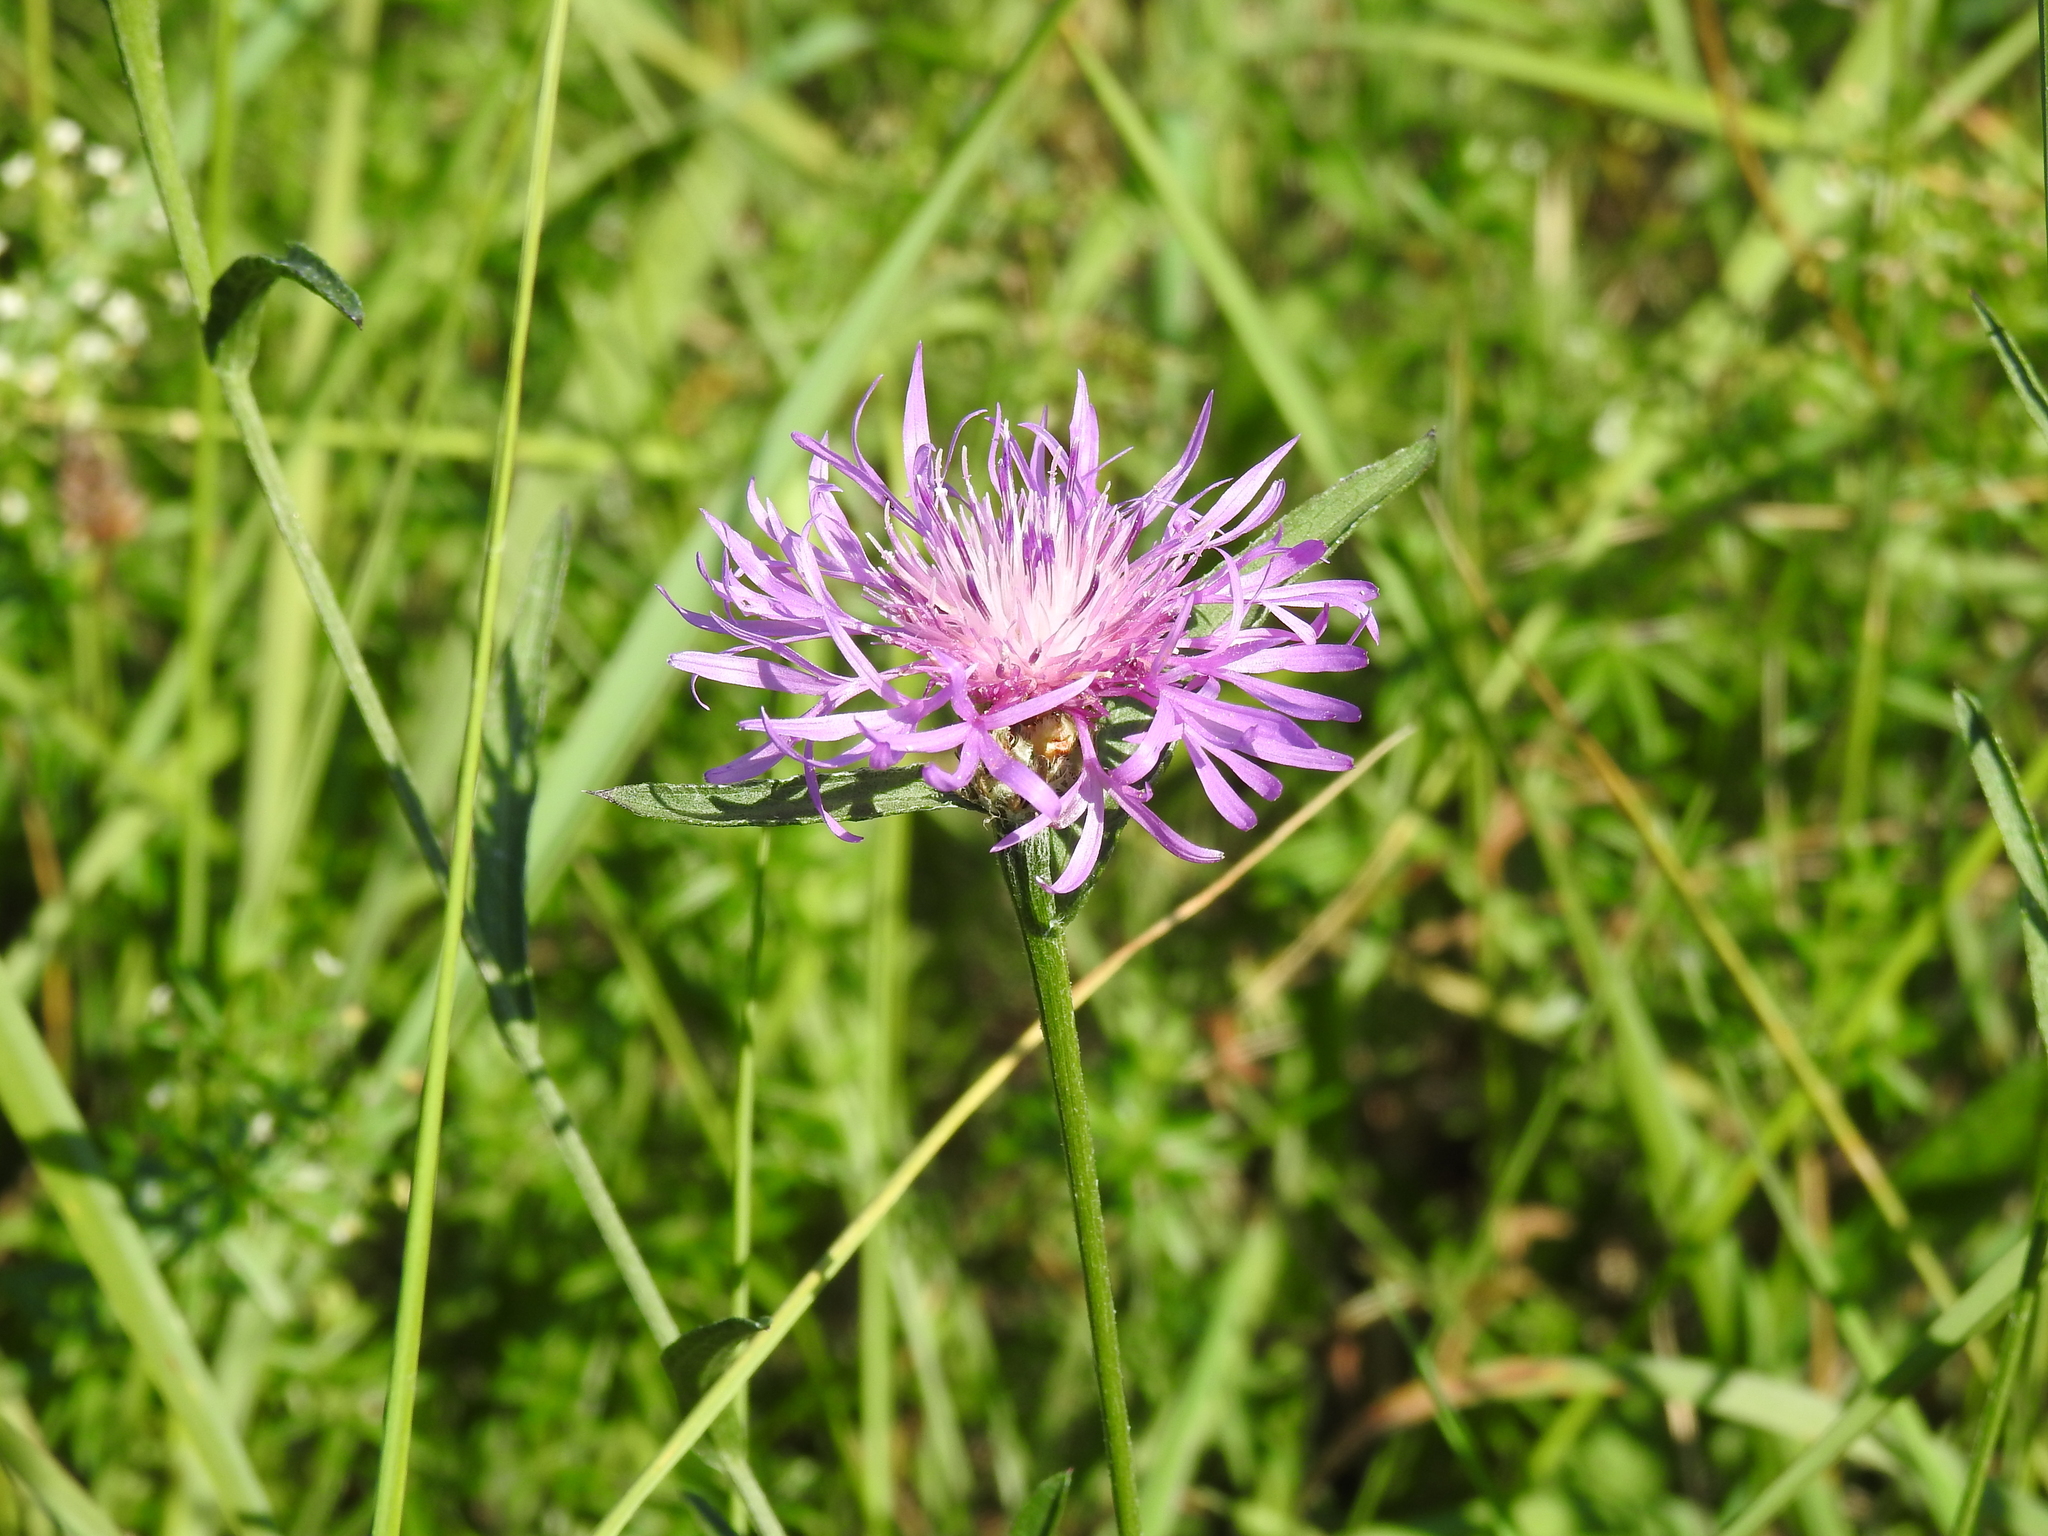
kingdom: Plantae
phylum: Tracheophyta
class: Magnoliopsida
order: Asterales
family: Asteraceae
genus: Centaurea
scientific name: Centaurea jacea
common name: Brown knapweed
